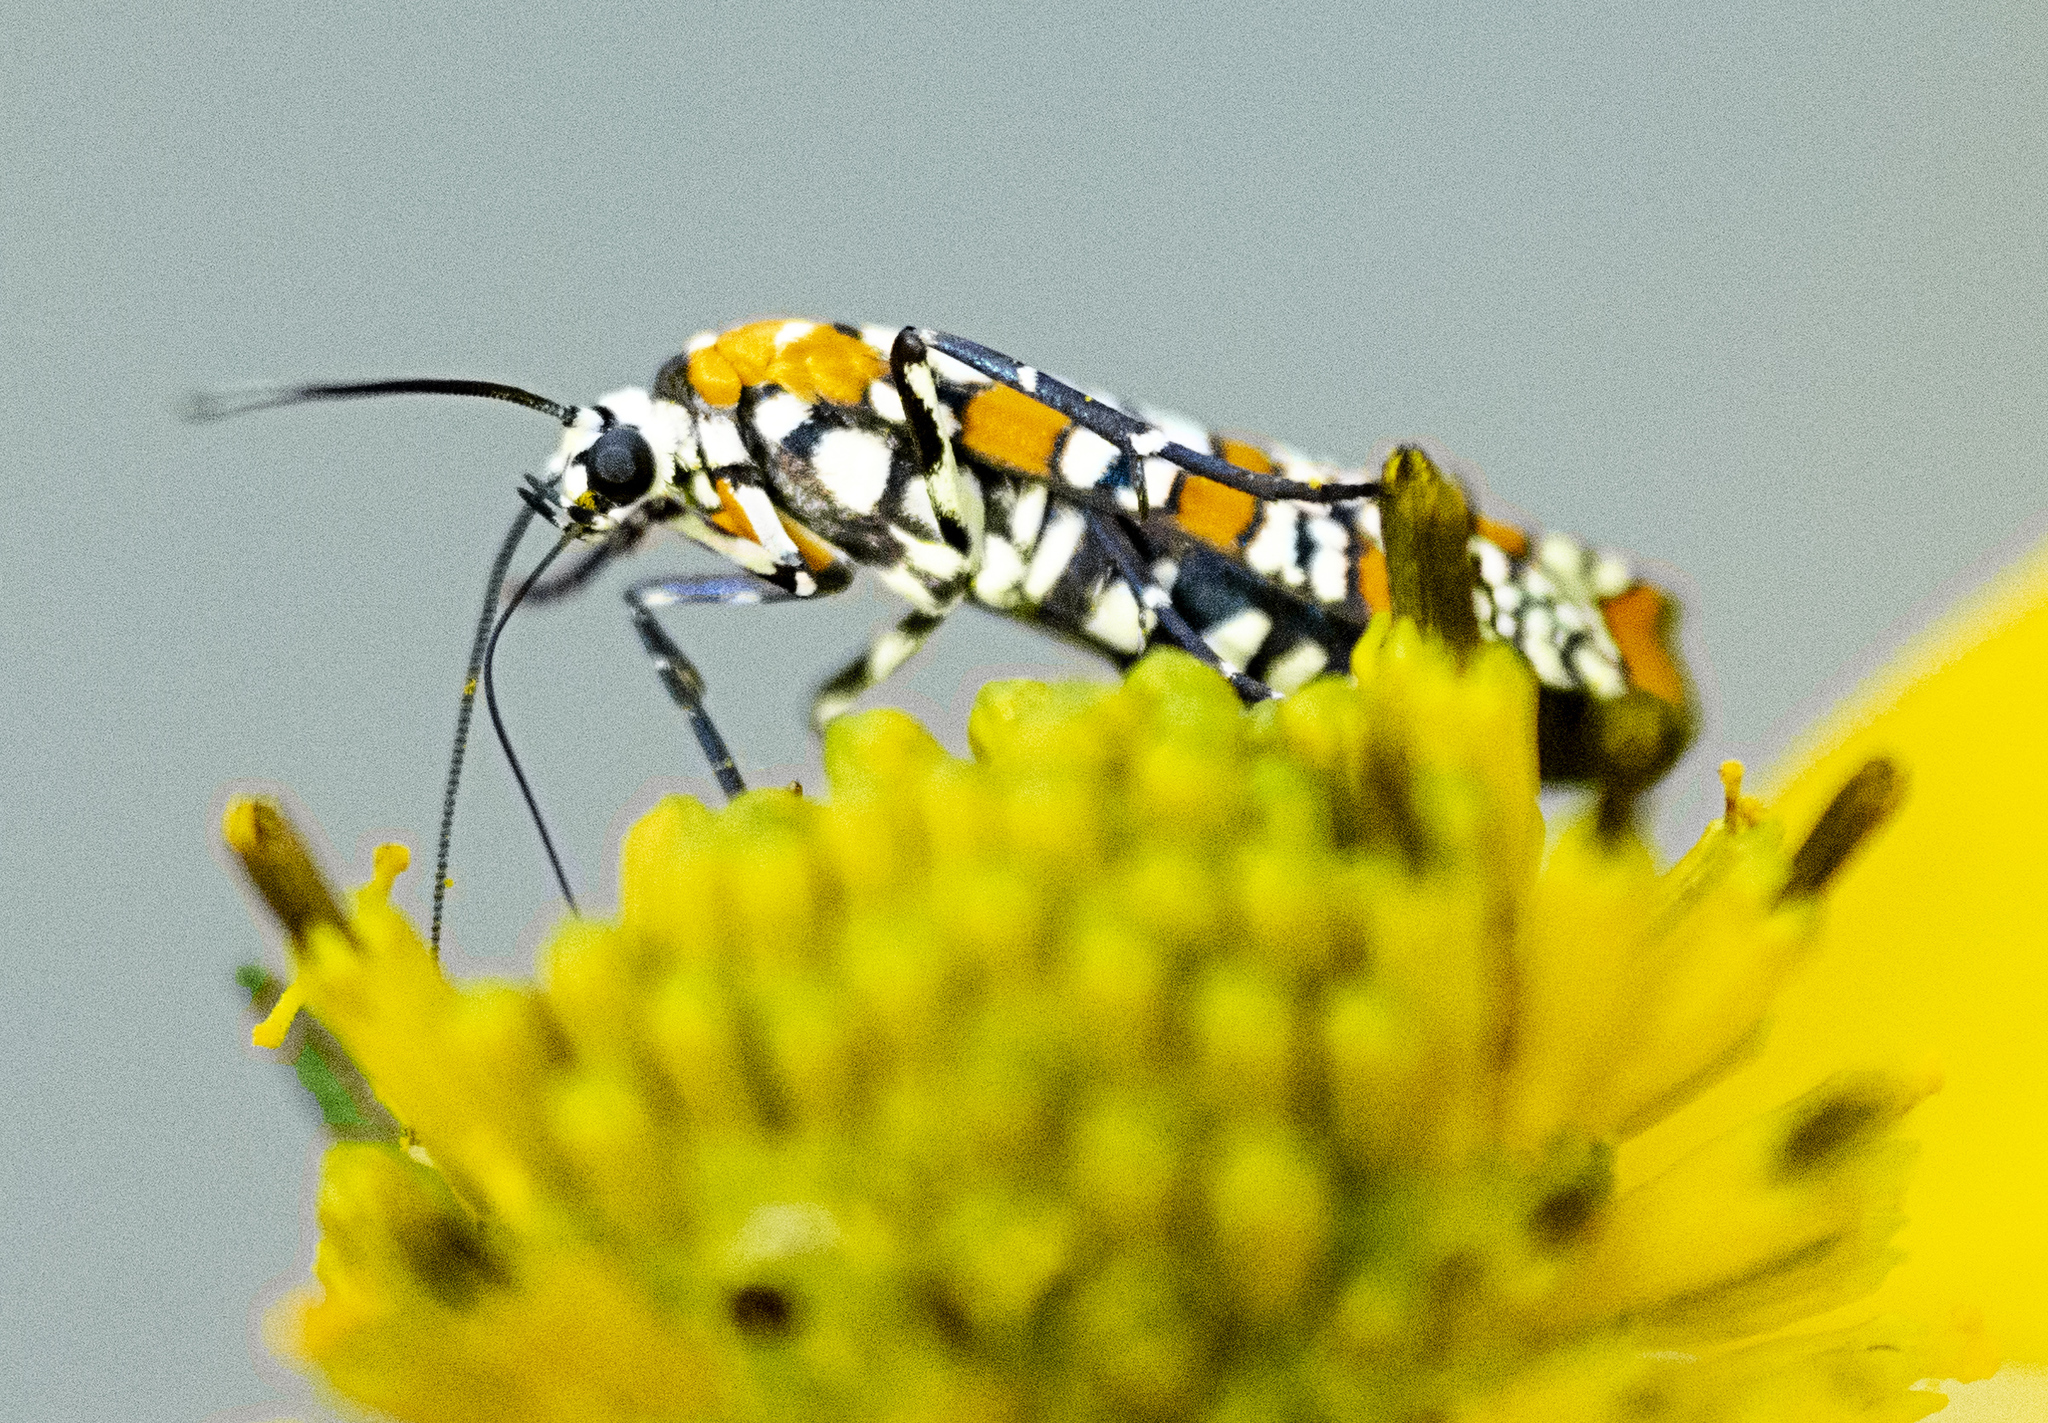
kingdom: Animalia
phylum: Arthropoda
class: Insecta
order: Lepidoptera
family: Attevidae
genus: Atteva
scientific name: Atteva punctella
